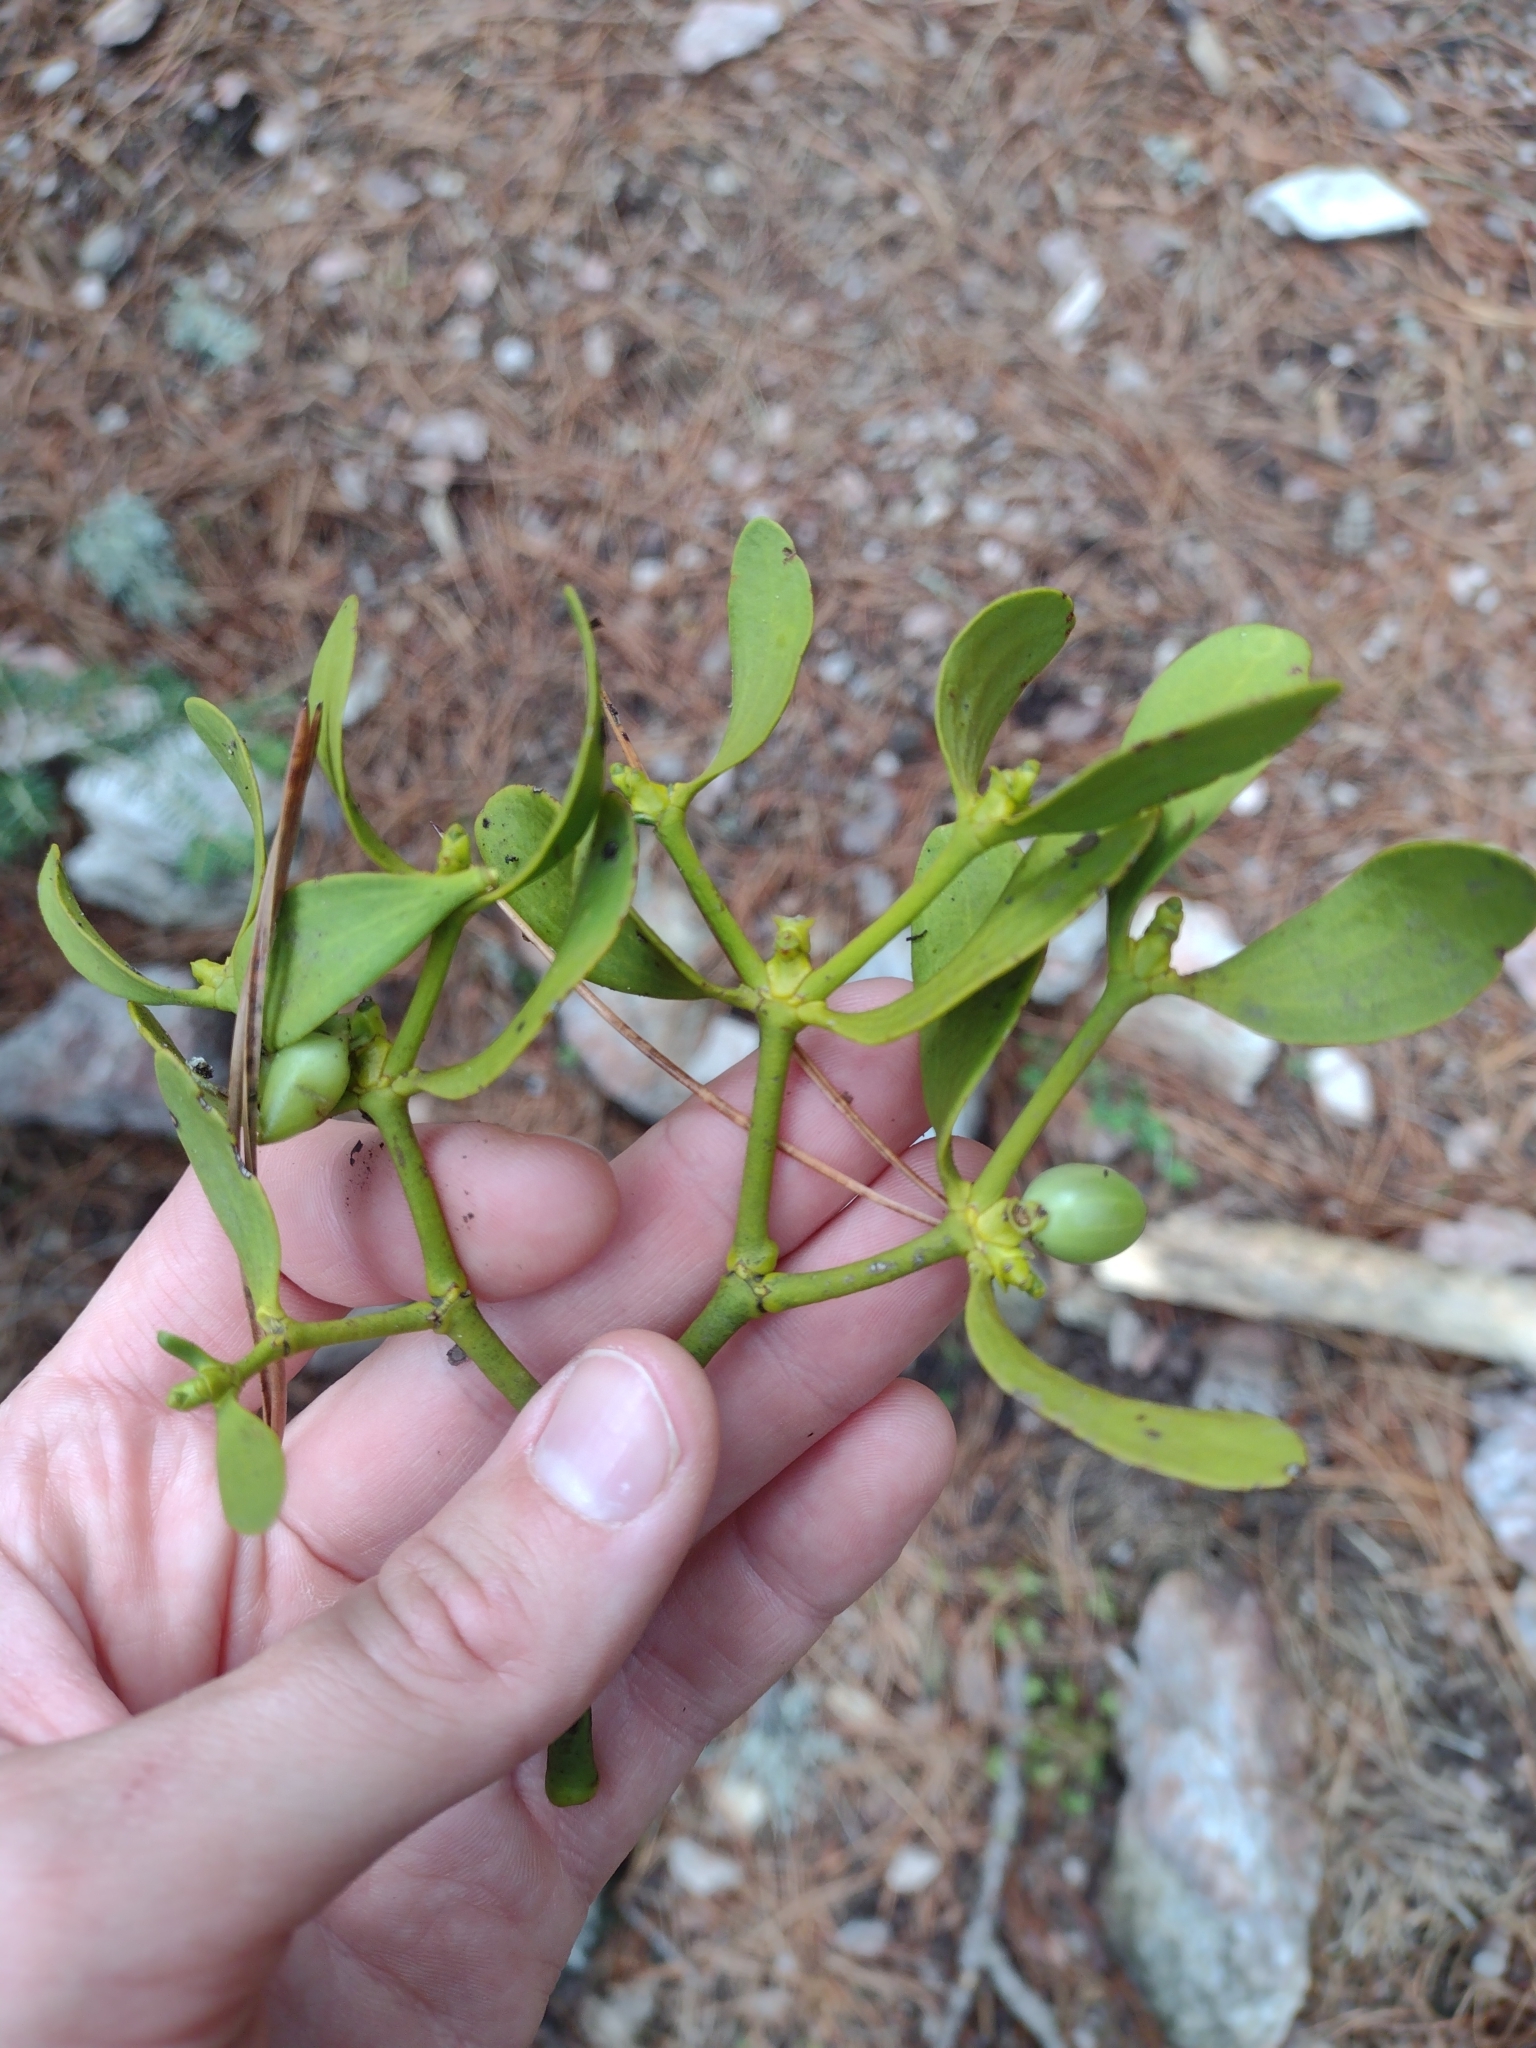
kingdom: Plantae
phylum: Tracheophyta
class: Magnoliopsida
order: Santalales
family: Viscaceae
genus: Viscum
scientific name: Viscum album
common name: Mistletoe
